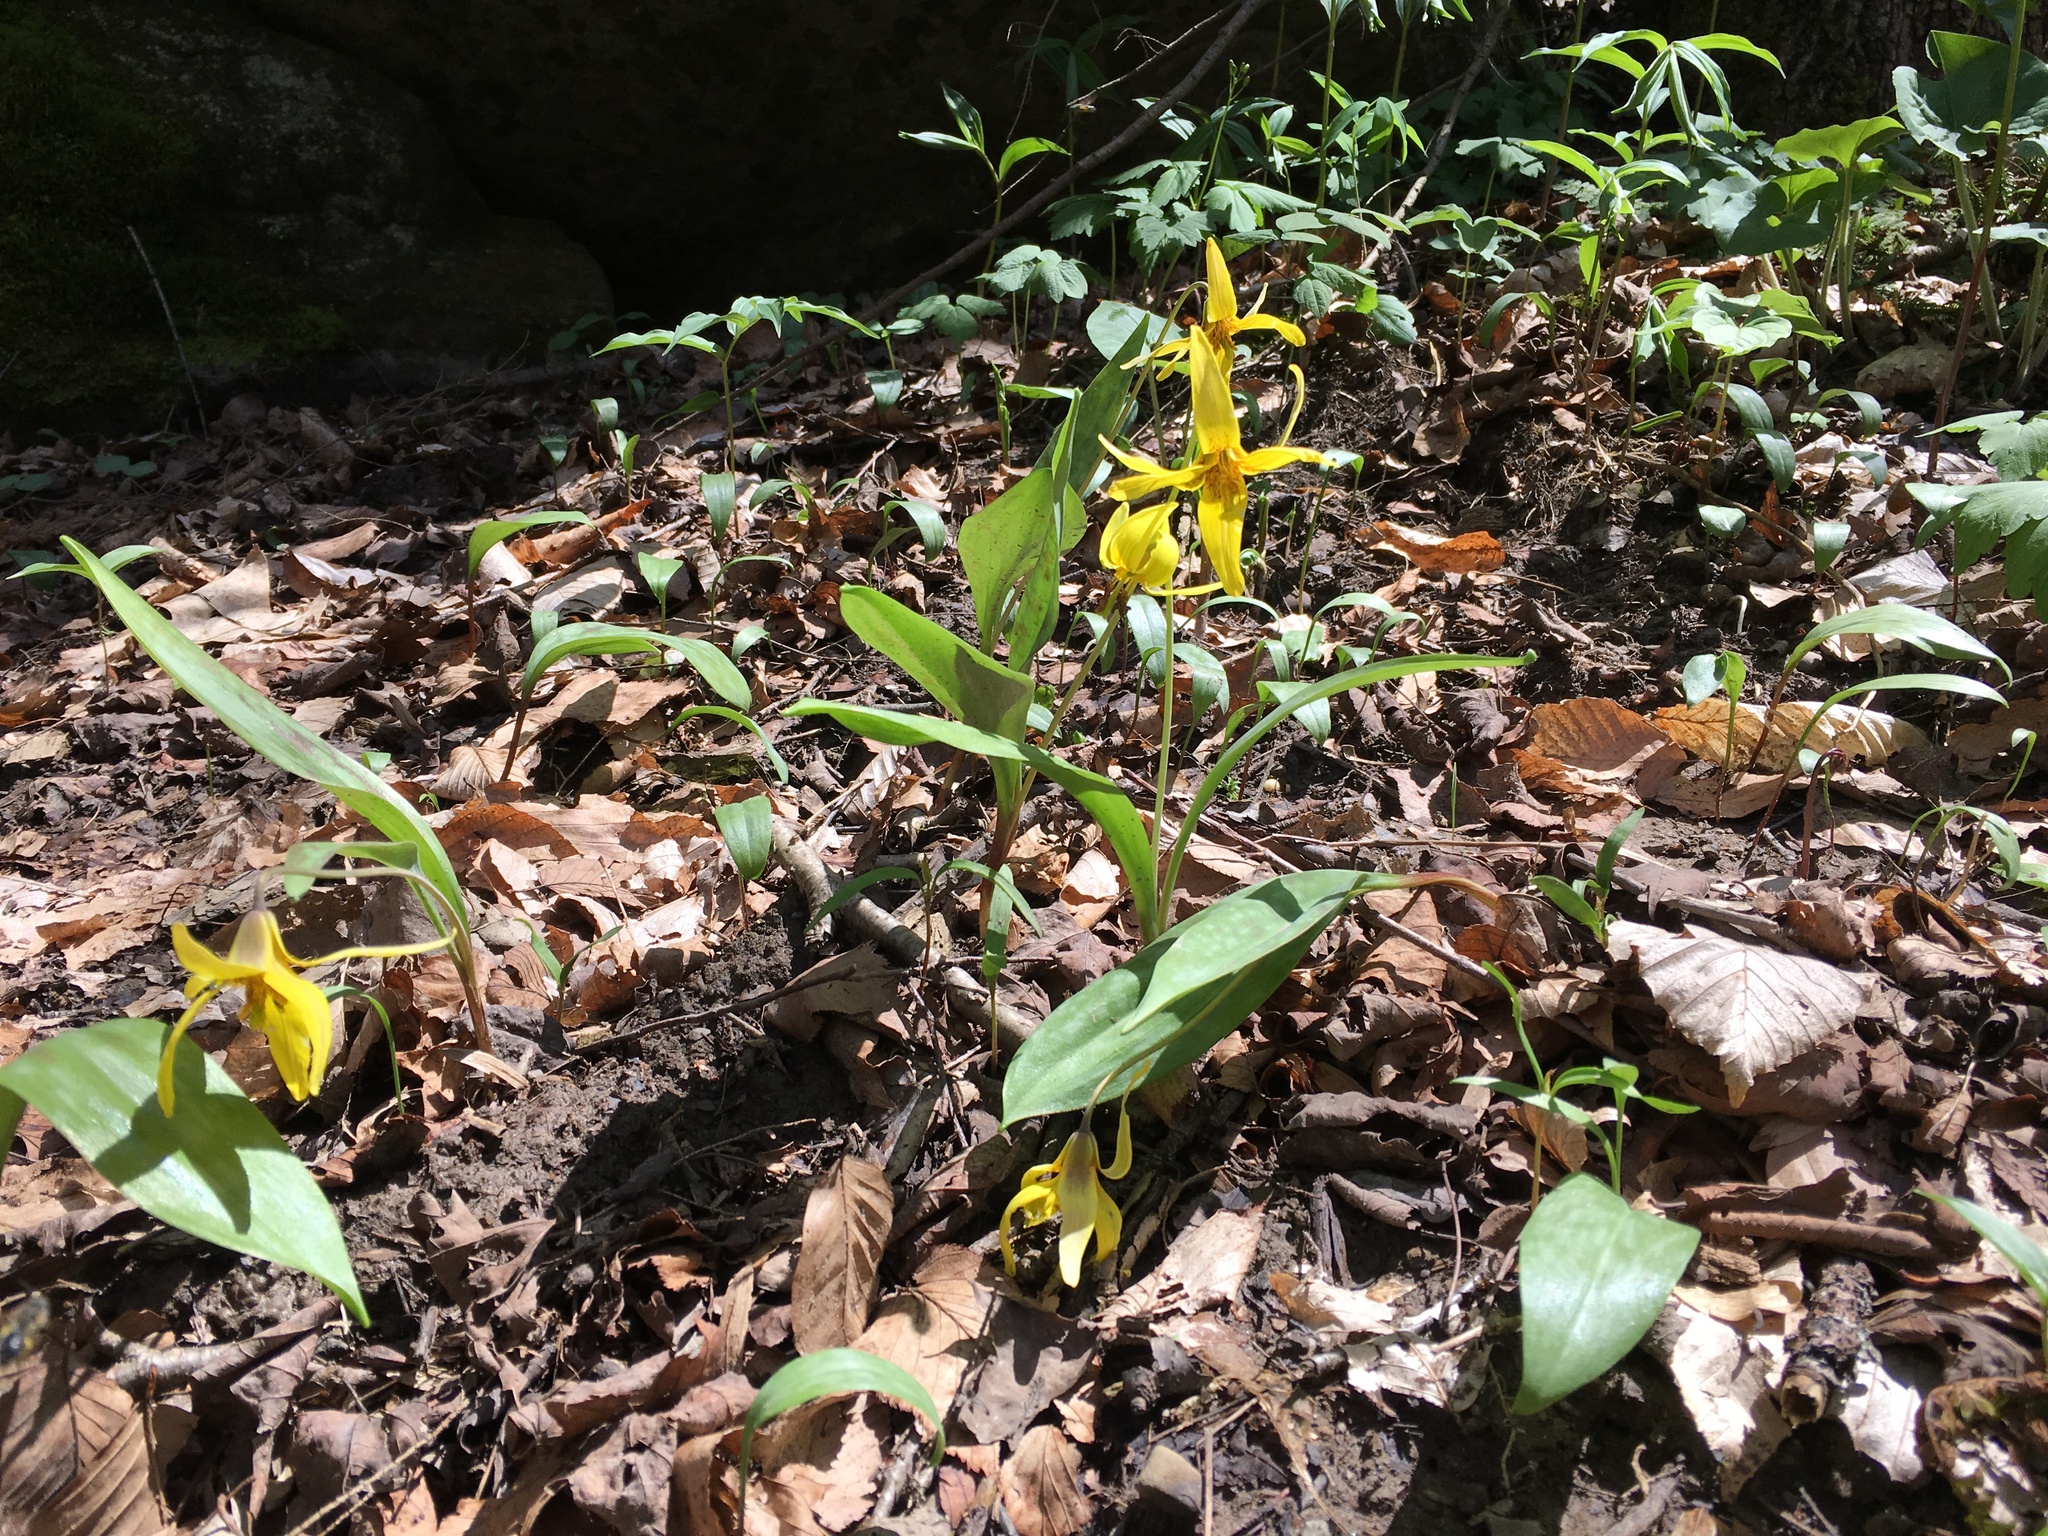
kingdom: Plantae
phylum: Tracheophyta
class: Liliopsida
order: Liliales
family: Liliaceae
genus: Erythronium
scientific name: Erythronium americanum
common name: Yellow adder's-tongue
